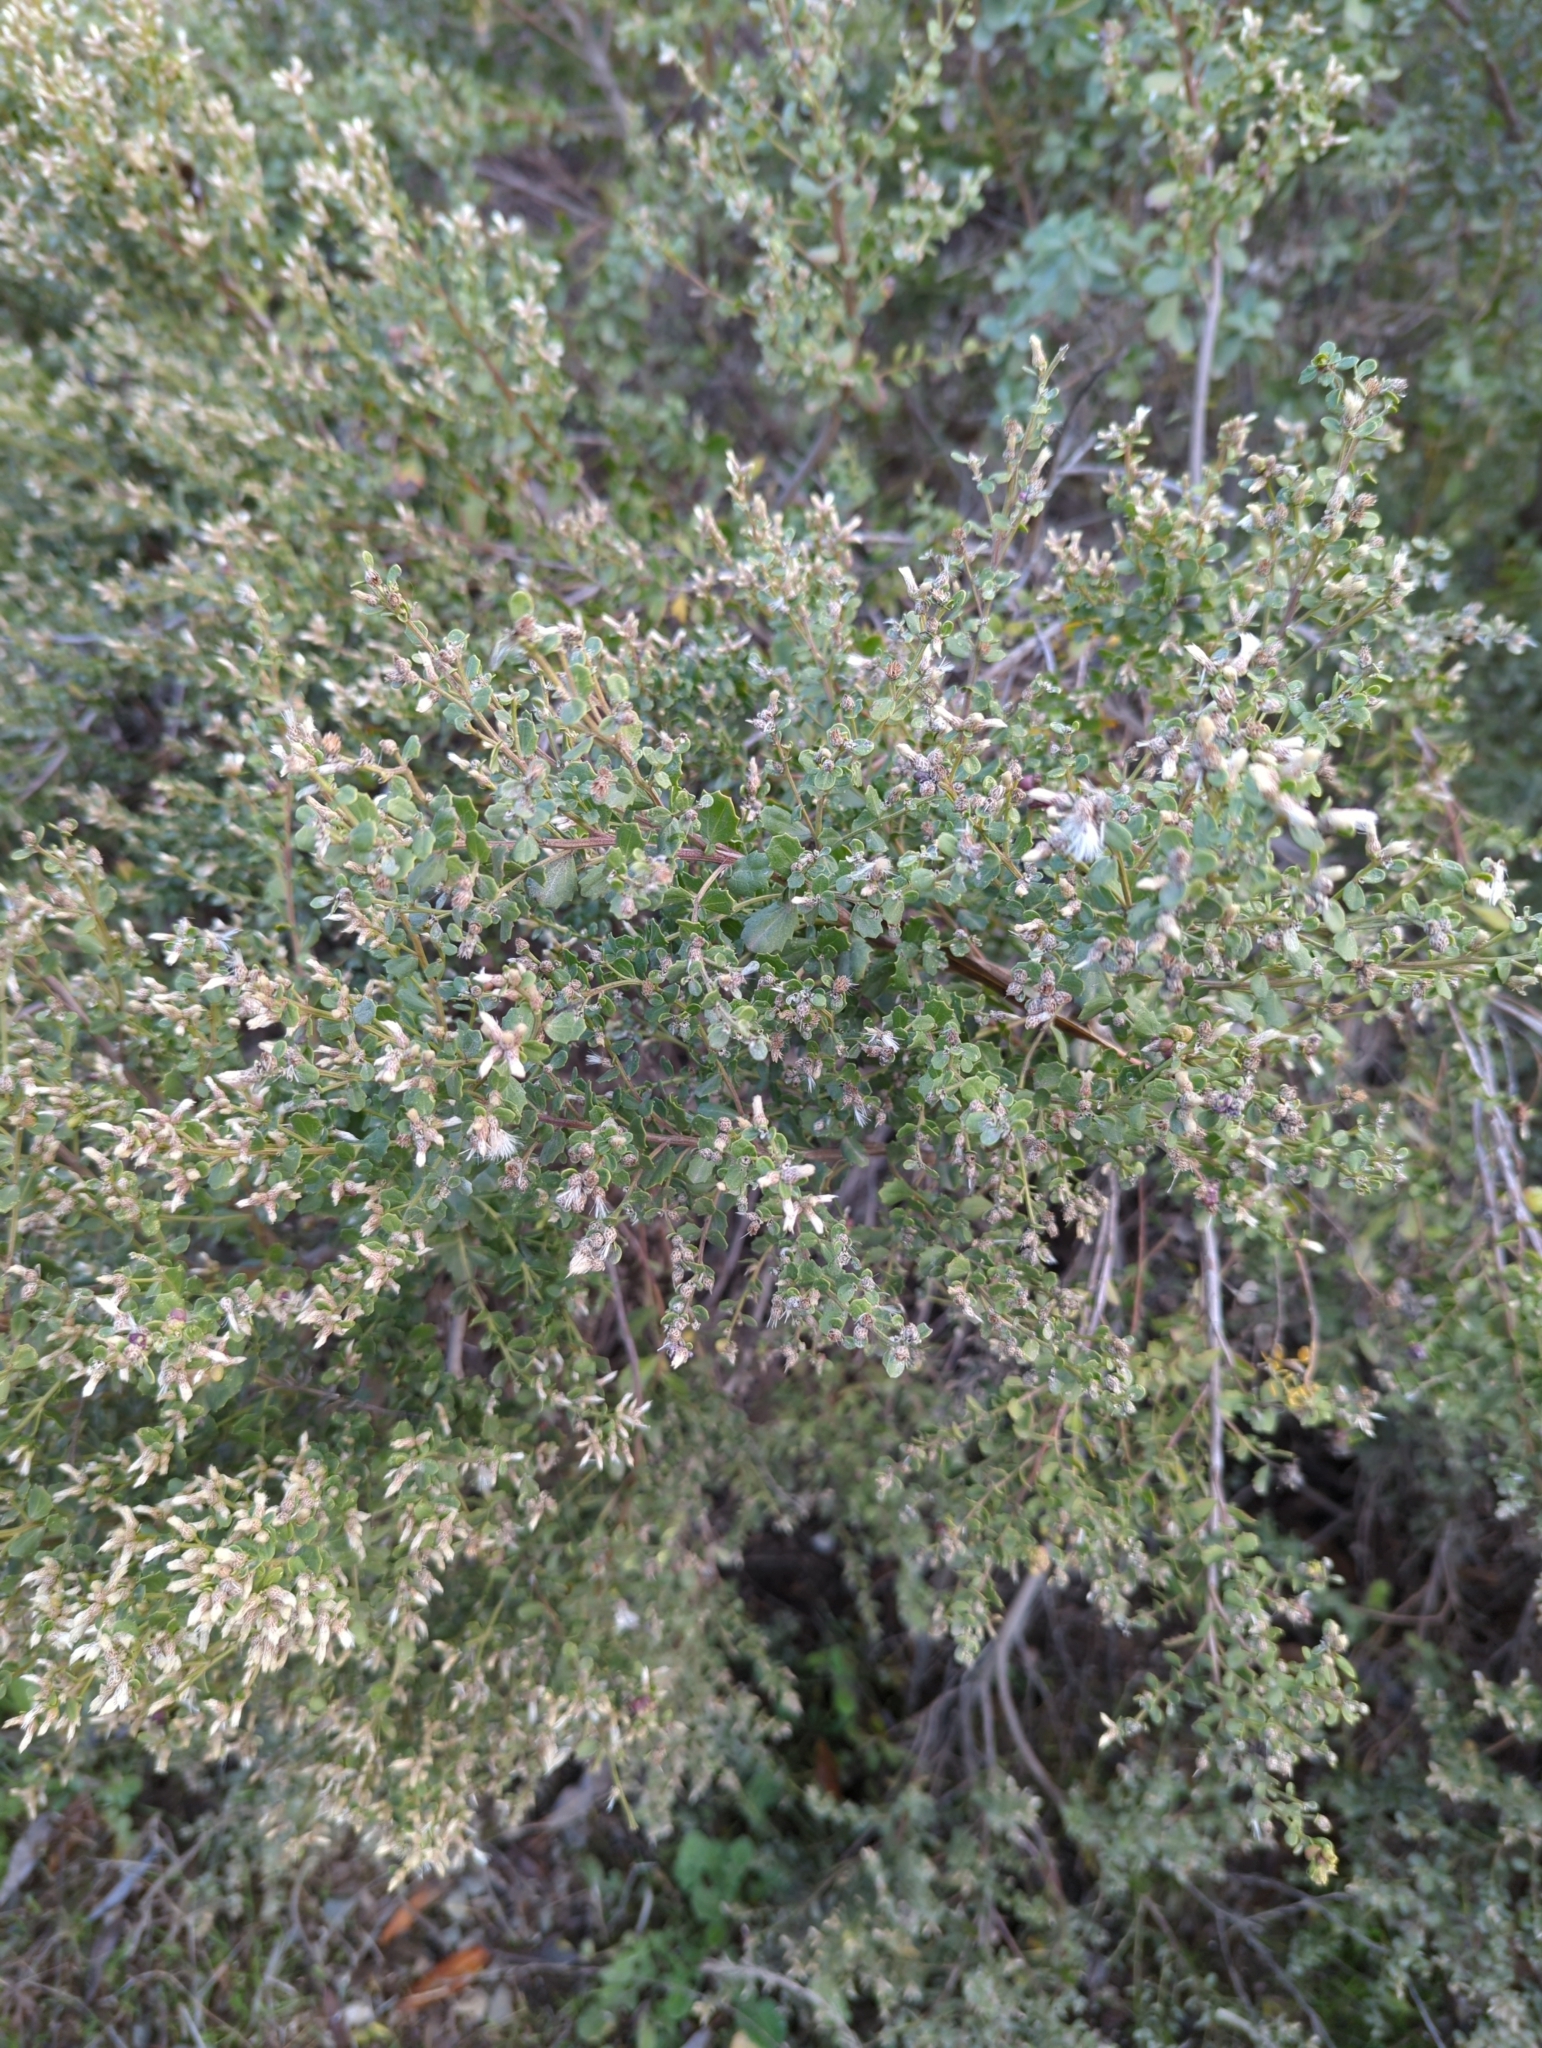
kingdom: Plantae
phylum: Tracheophyta
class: Magnoliopsida
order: Asterales
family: Asteraceae
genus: Baccharis
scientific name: Baccharis pilularis
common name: Coyotebrush
